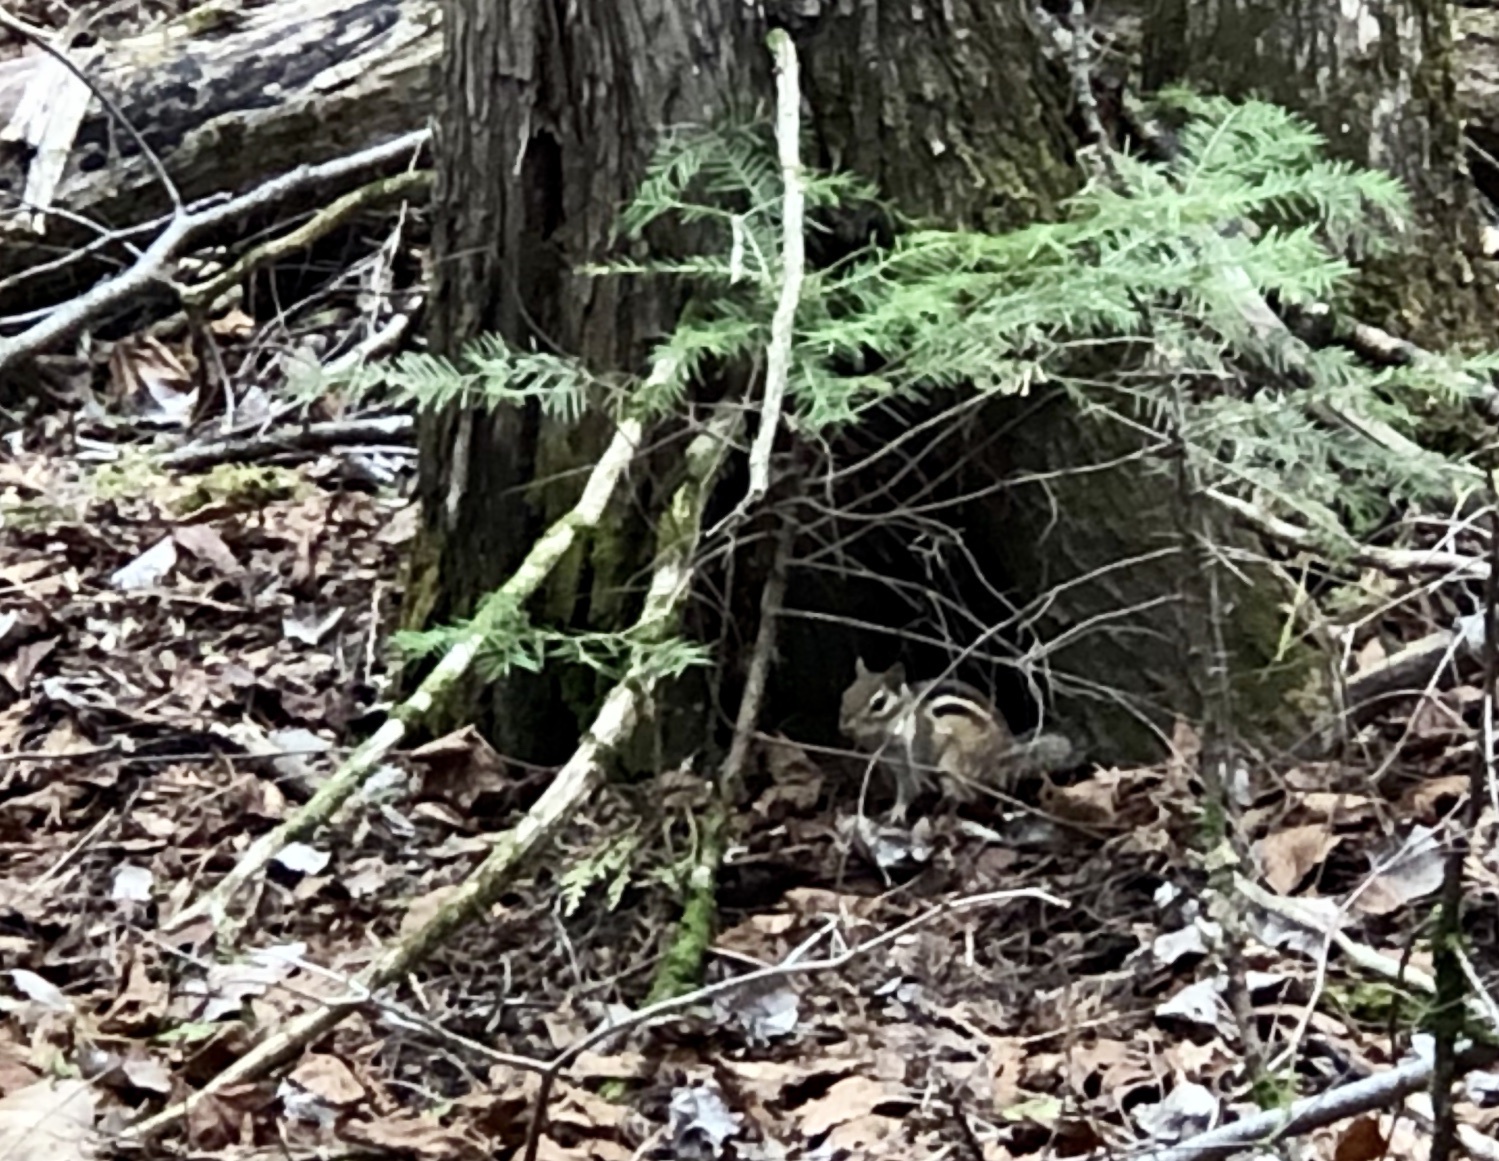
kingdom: Animalia
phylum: Chordata
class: Mammalia
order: Rodentia
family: Sciuridae
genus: Tamias
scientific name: Tamias striatus
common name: Eastern chipmunk
